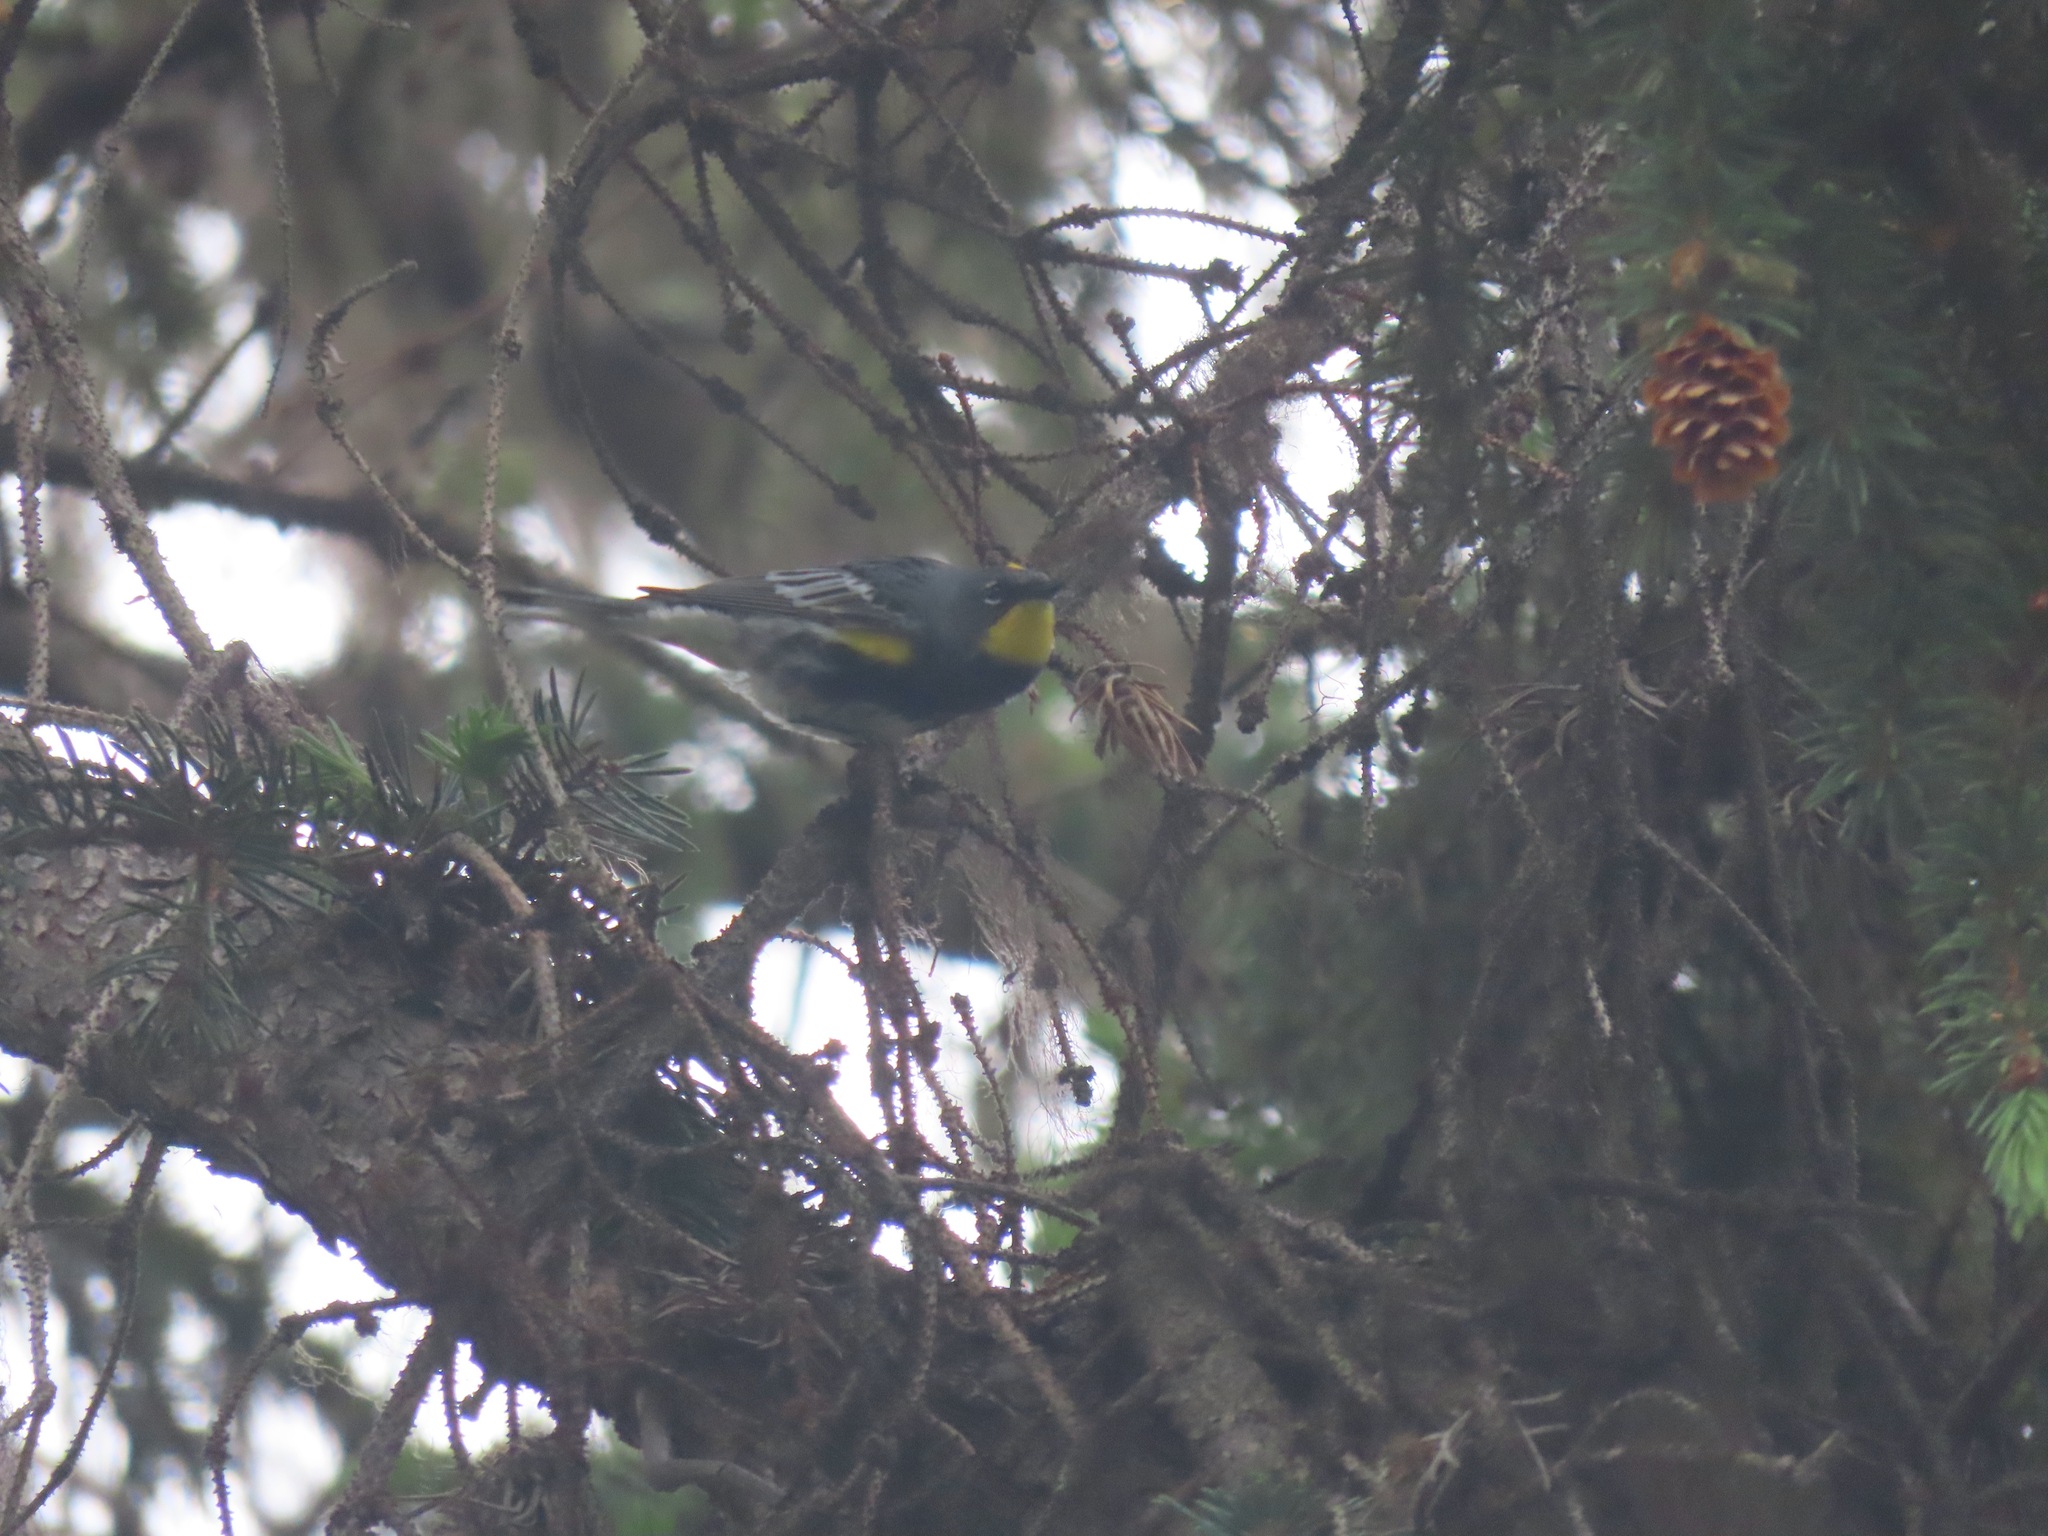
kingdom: Animalia
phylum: Chordata
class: Aves
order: Passeriformes
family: Parulidae
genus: Setophaga
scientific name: Setophaga coronata
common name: Myrtle warbler
